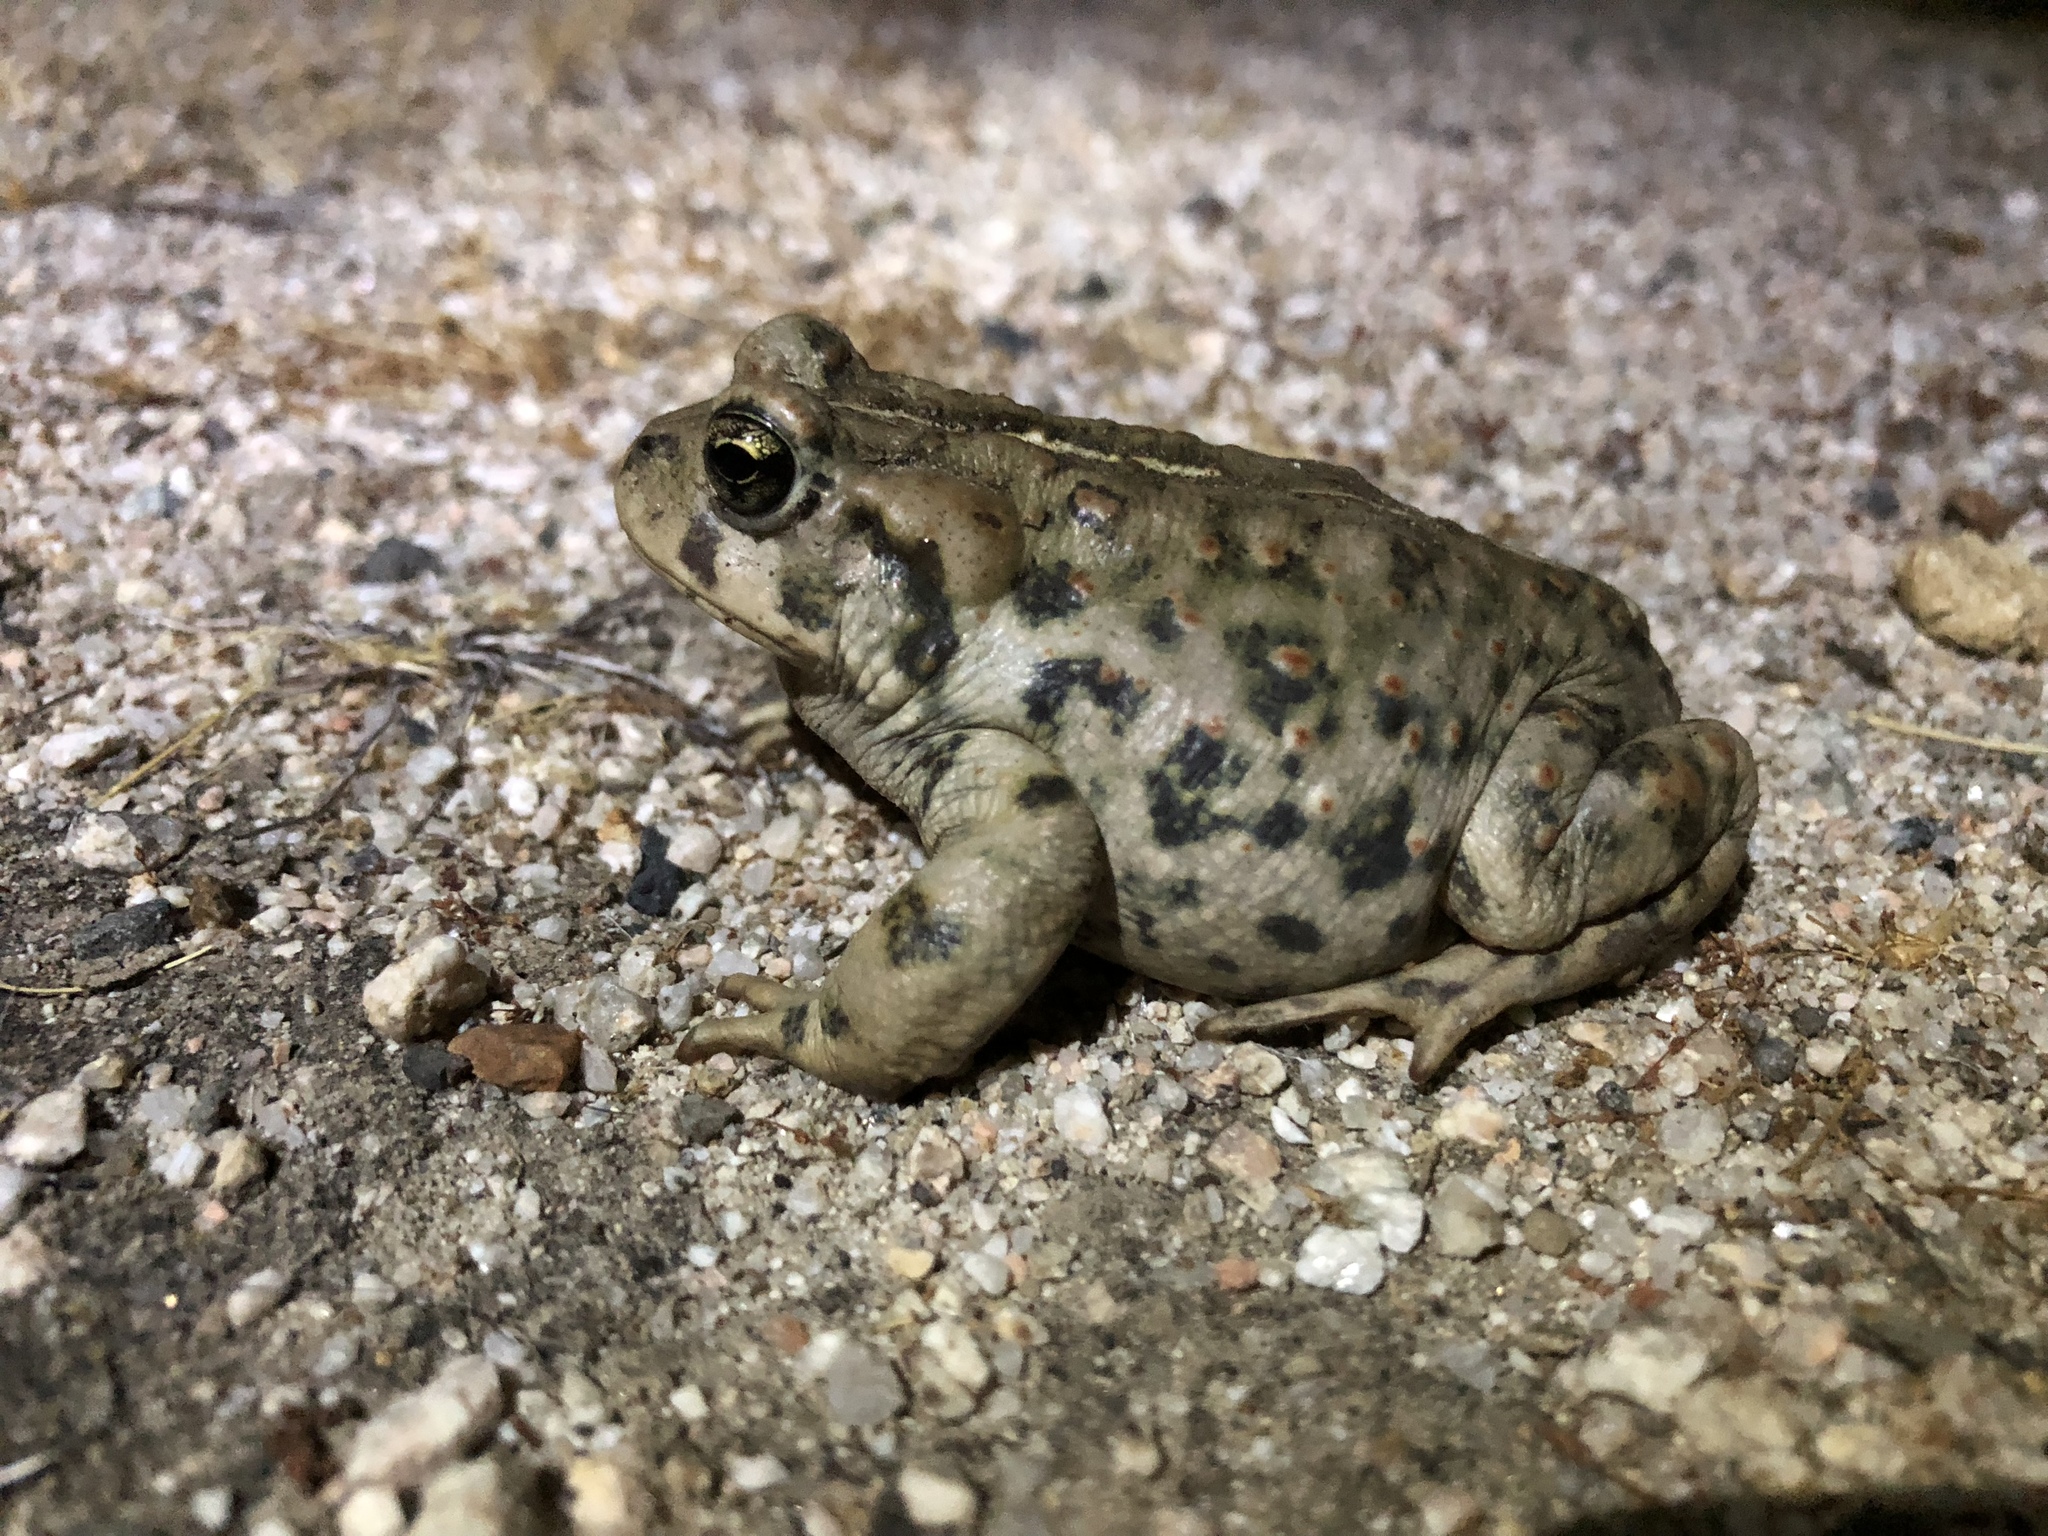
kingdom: Animalia
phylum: Chordata
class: Amphibia
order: Anura
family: Bufonidae
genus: Anaxyrus
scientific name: Anaxyrus boreas
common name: Western toad
